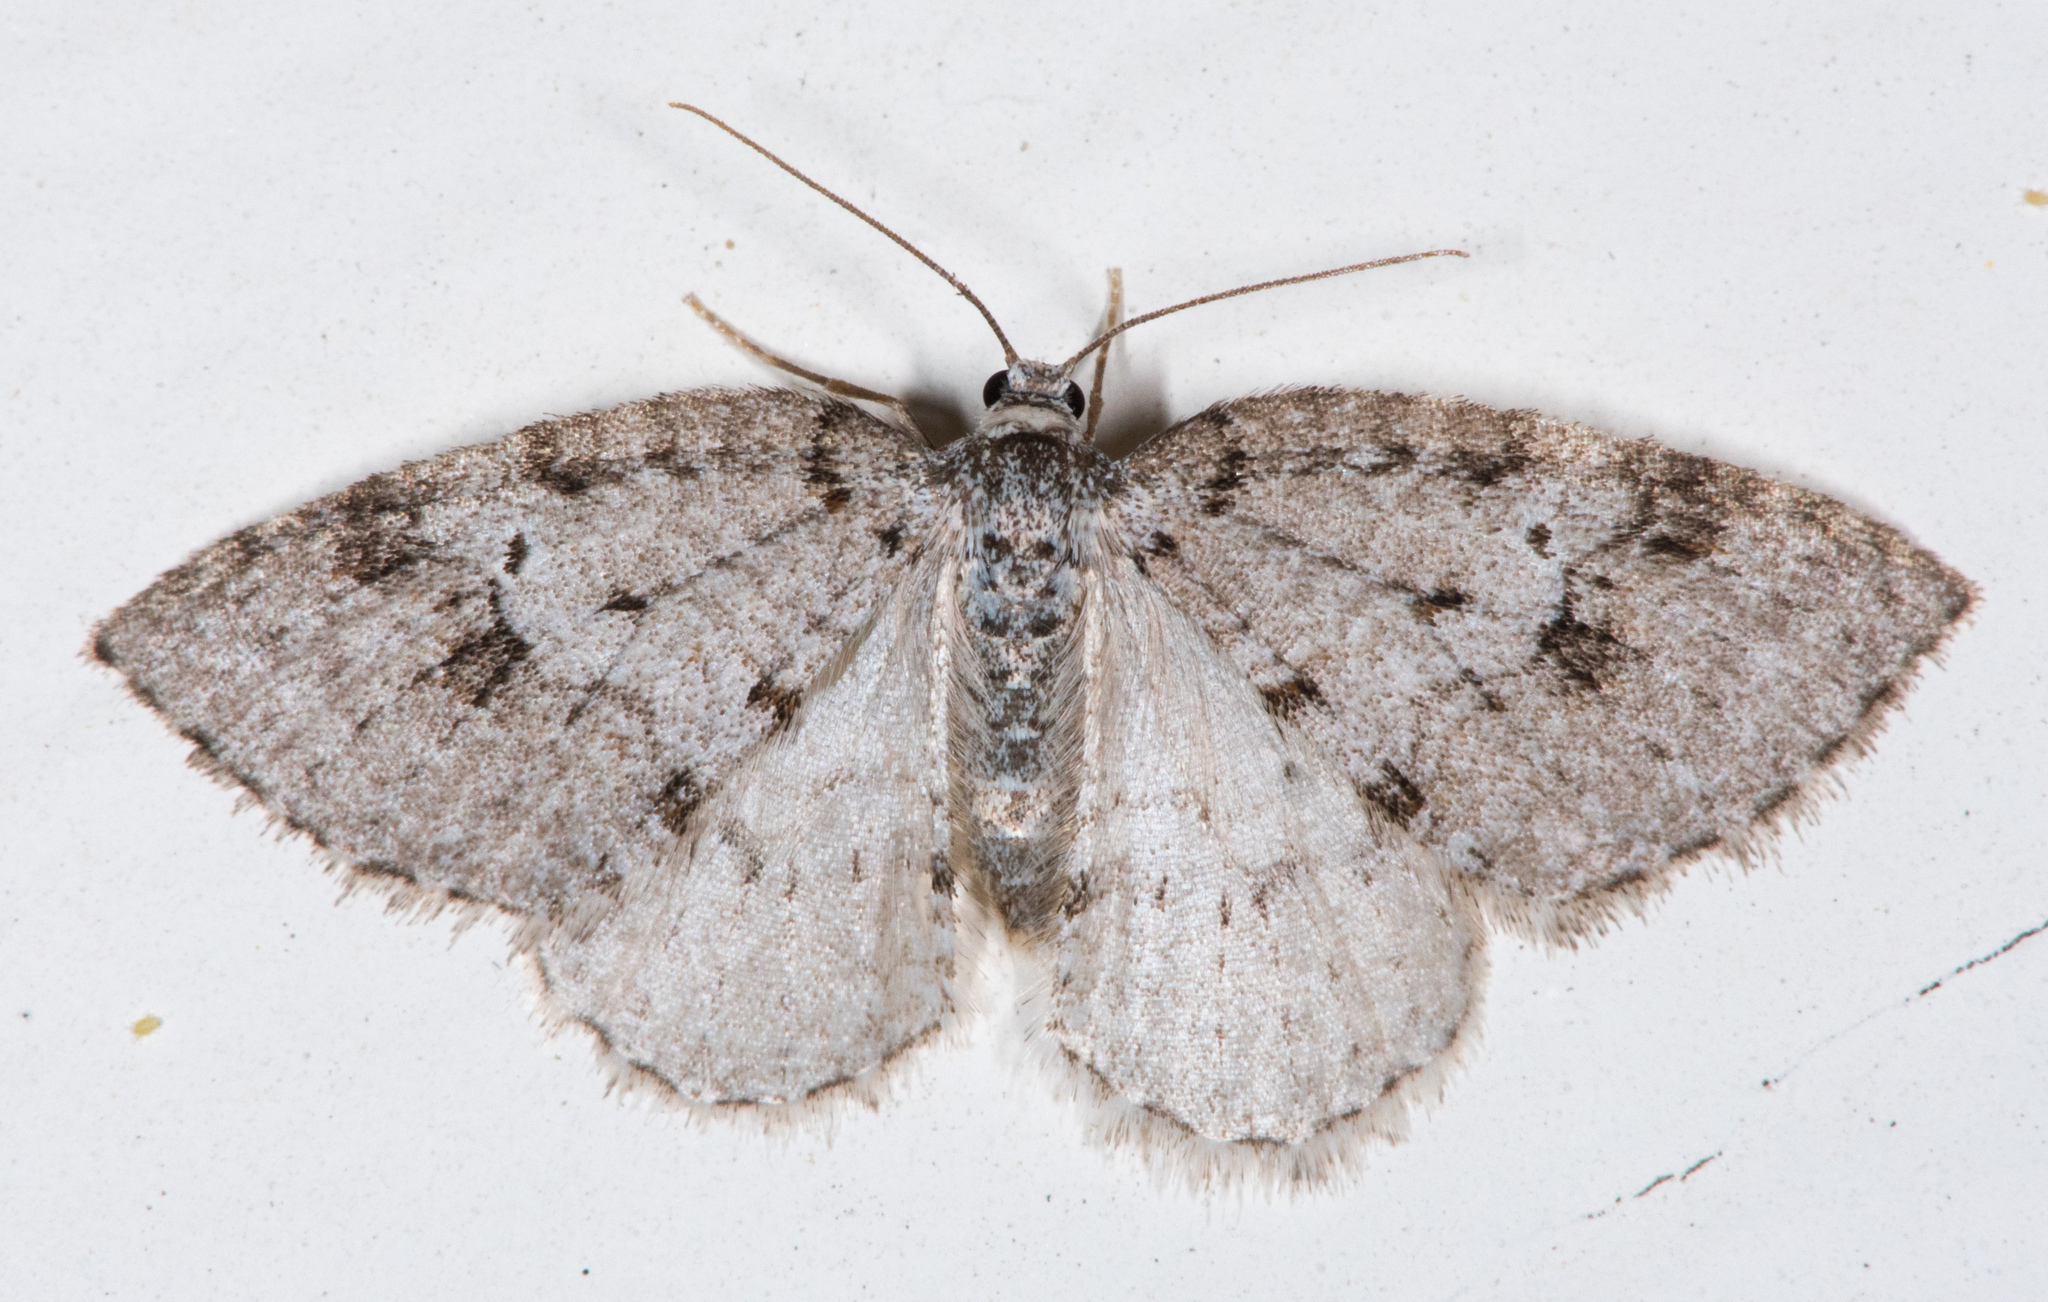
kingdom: Animalia
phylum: Arthropoda
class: Insecta
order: Lepidoptera
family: Geometridae
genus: Venusia
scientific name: Venusia obsoleta
